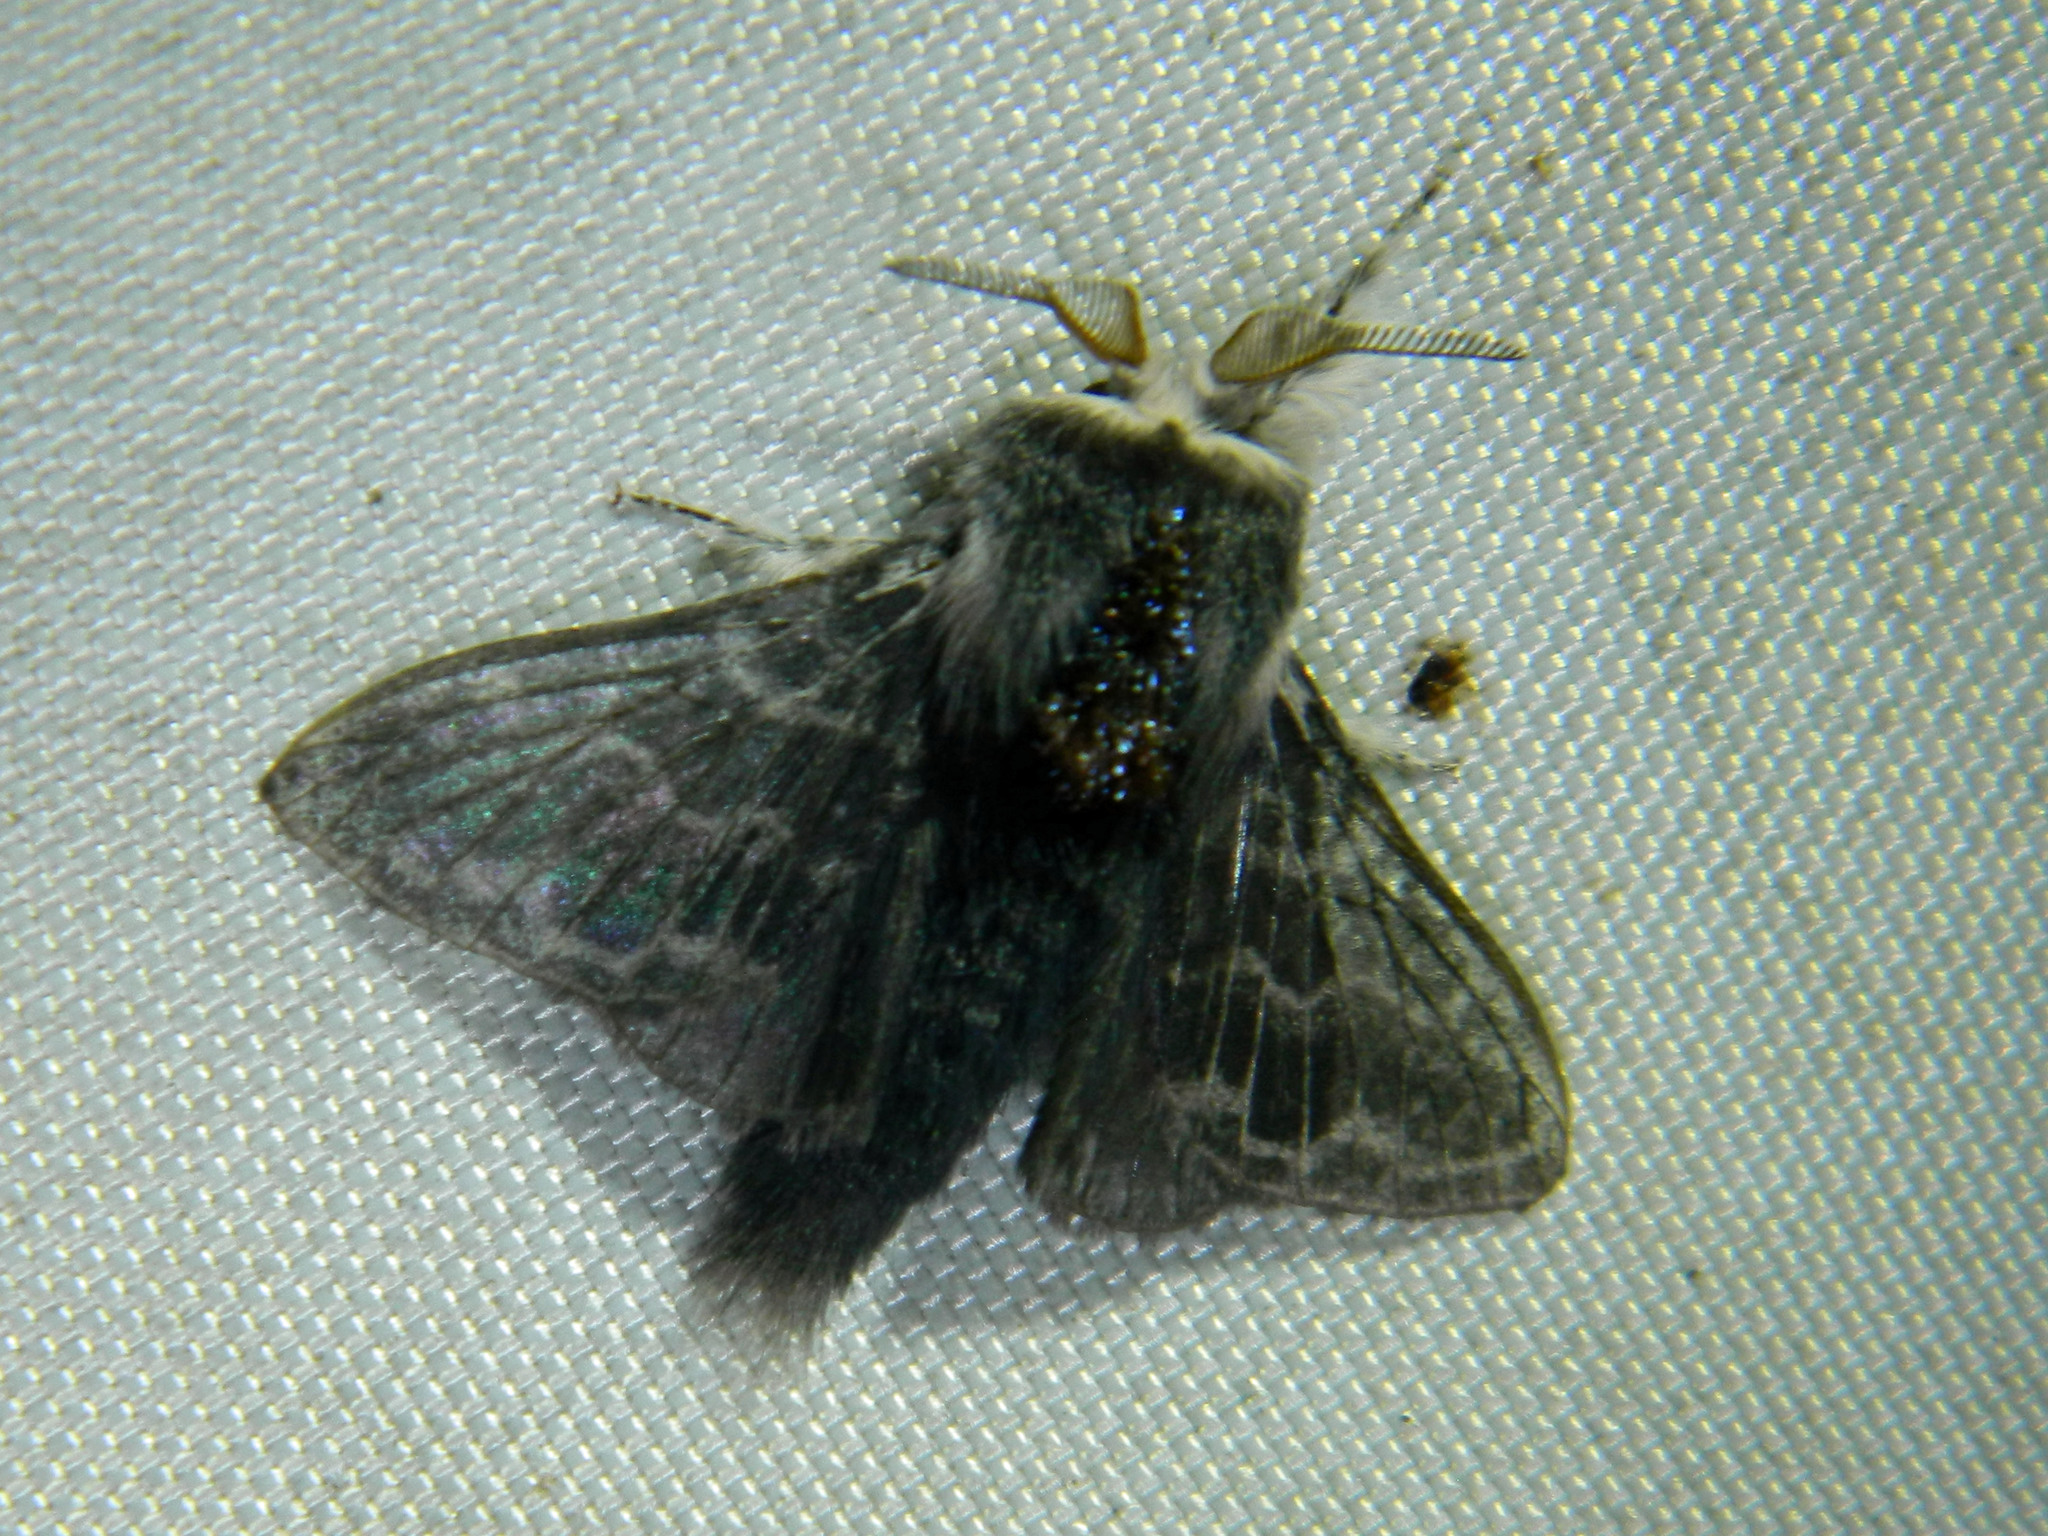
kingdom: Animalia
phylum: Arthropoda
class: Insecta
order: Lepidoptera
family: Lasiocampidae
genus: Tolype
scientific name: Tolype laricis
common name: Larch tolype moth
